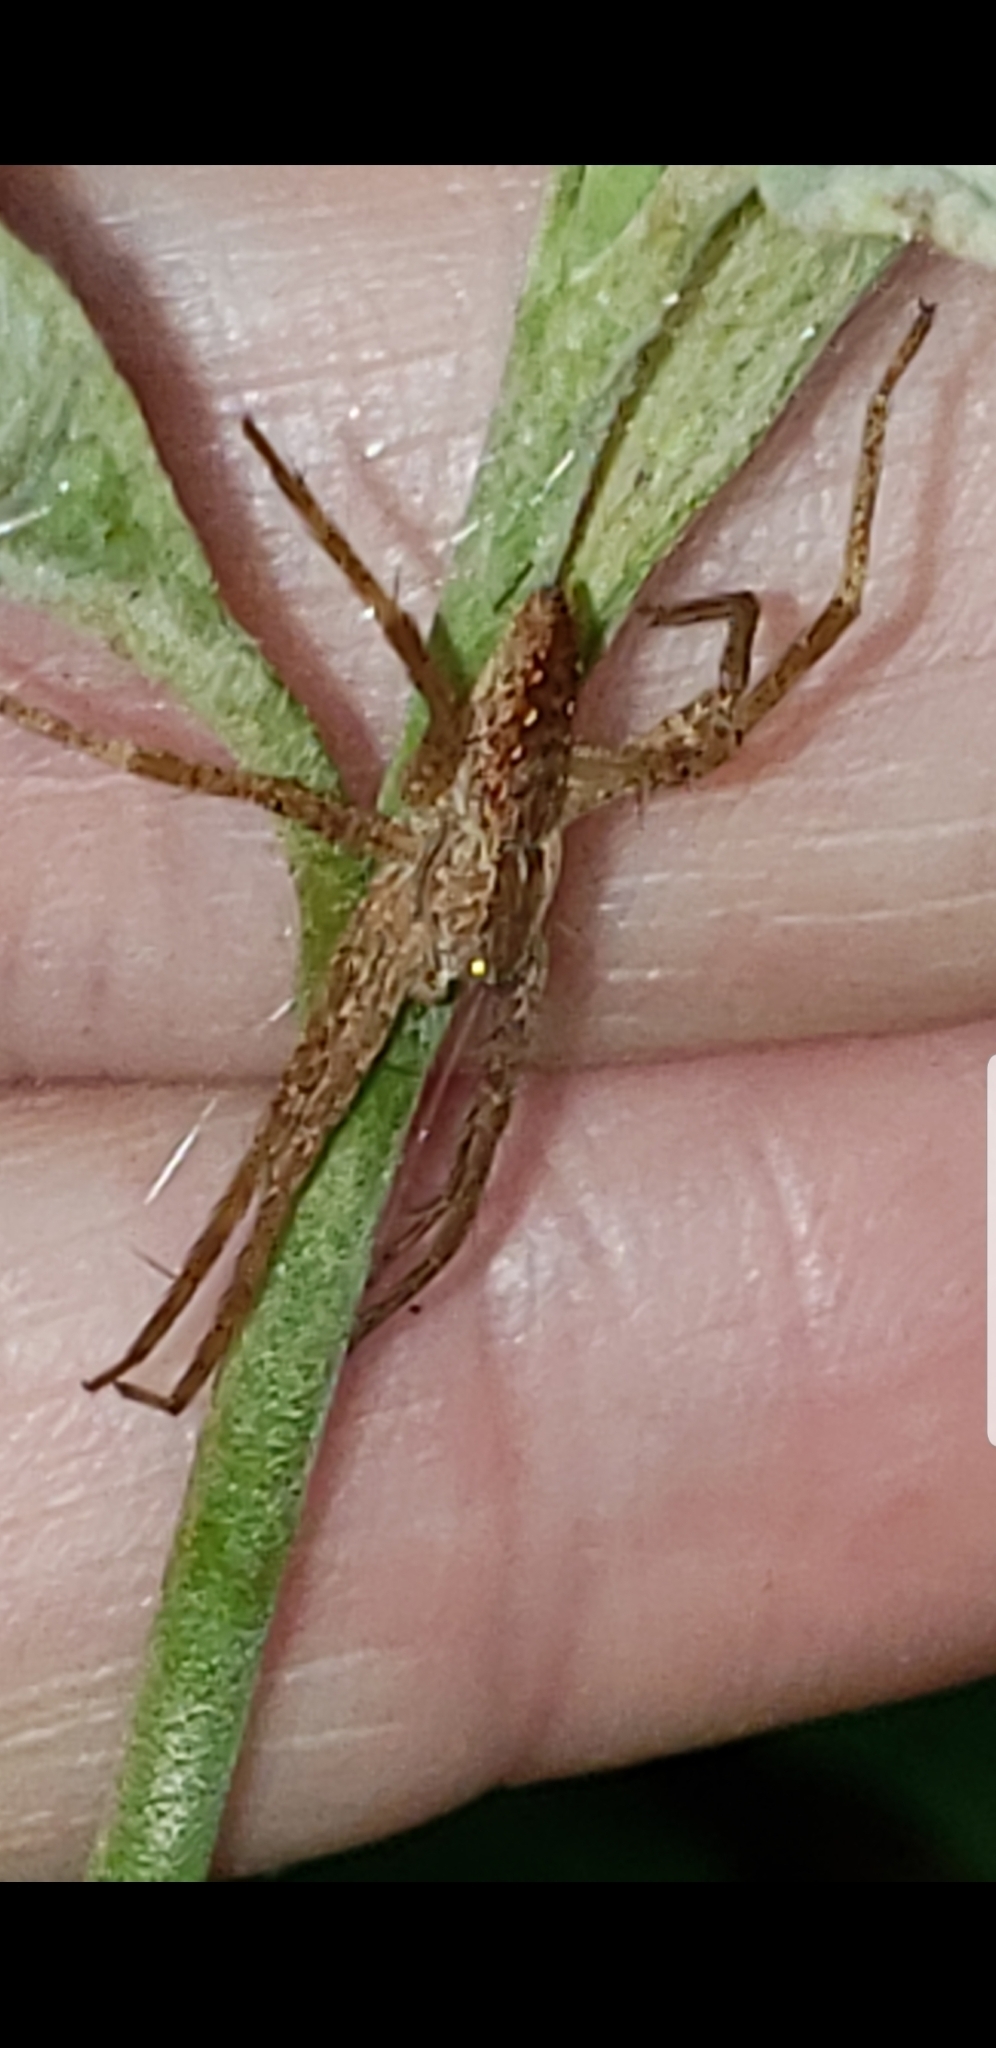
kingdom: Animalia
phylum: Arthropoda
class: Arachnida
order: Araneae
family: Pisauridae
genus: Pisaurina
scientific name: Pisaurina mira
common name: American nursery web spider
